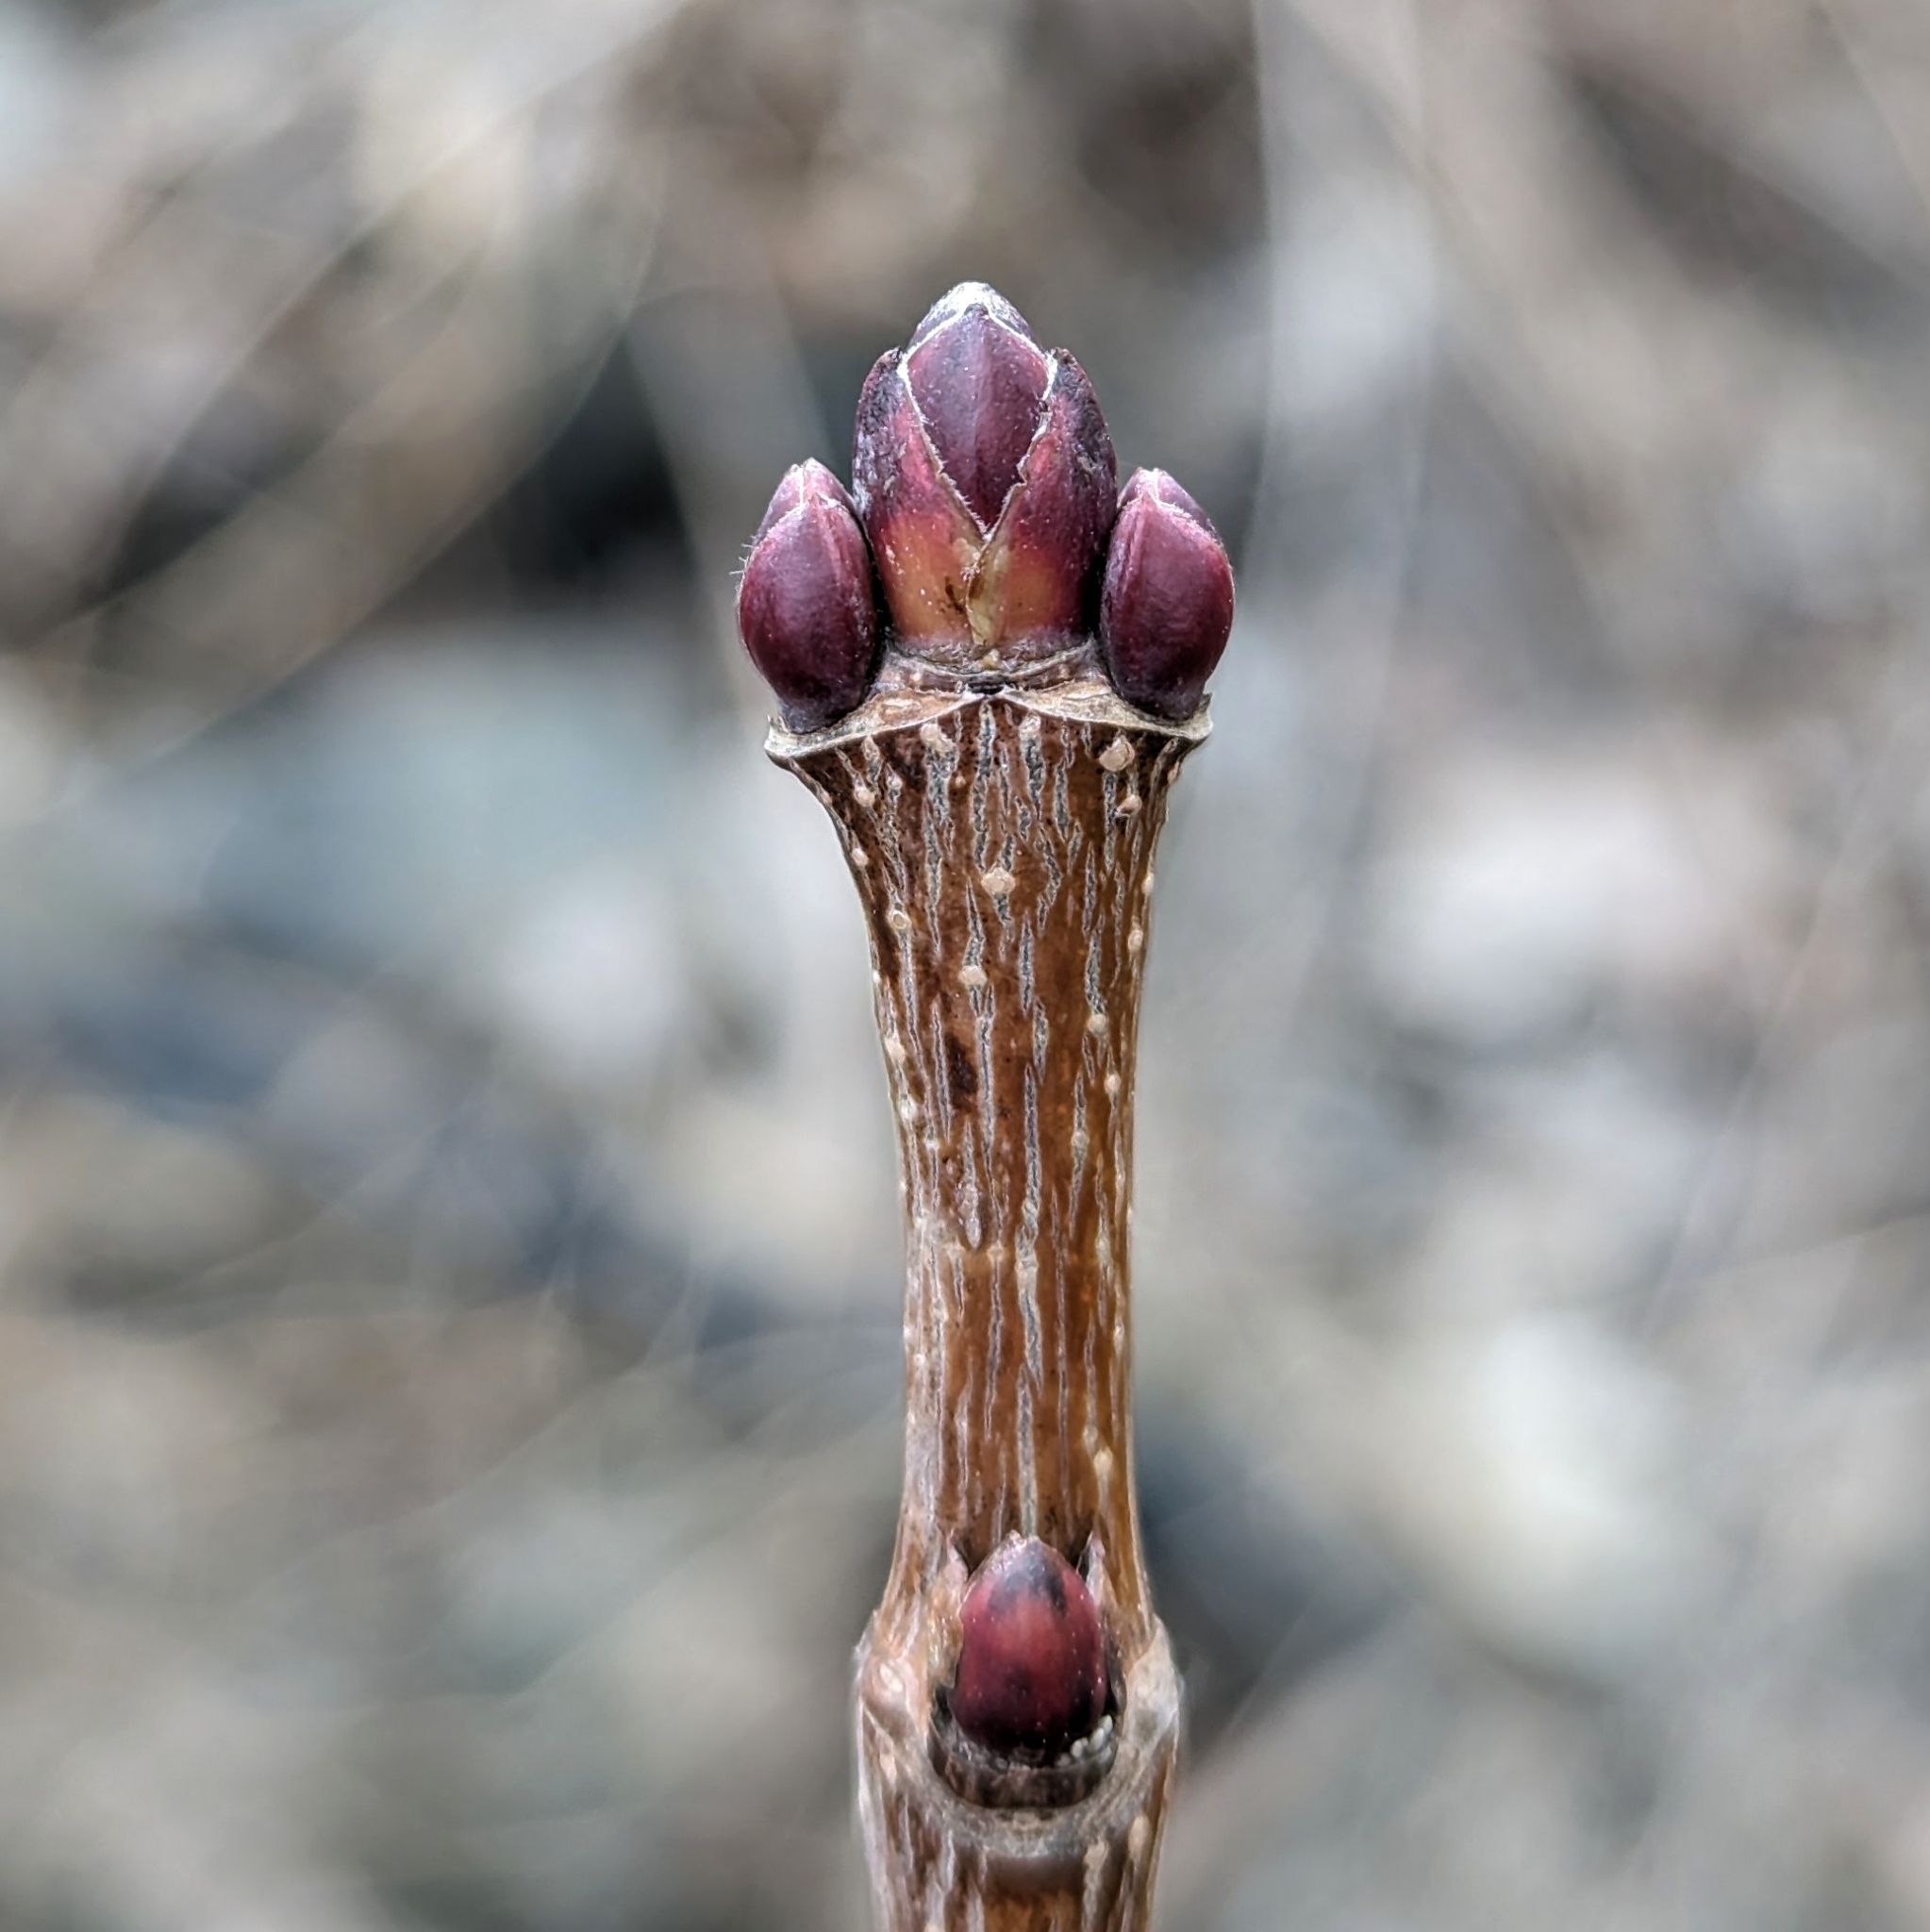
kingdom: Plantae
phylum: Tracheophyta
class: Magnoliopsida
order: Sapindales
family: Sapindaceae
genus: Acer
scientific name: Acer platanoides
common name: Norway maple
